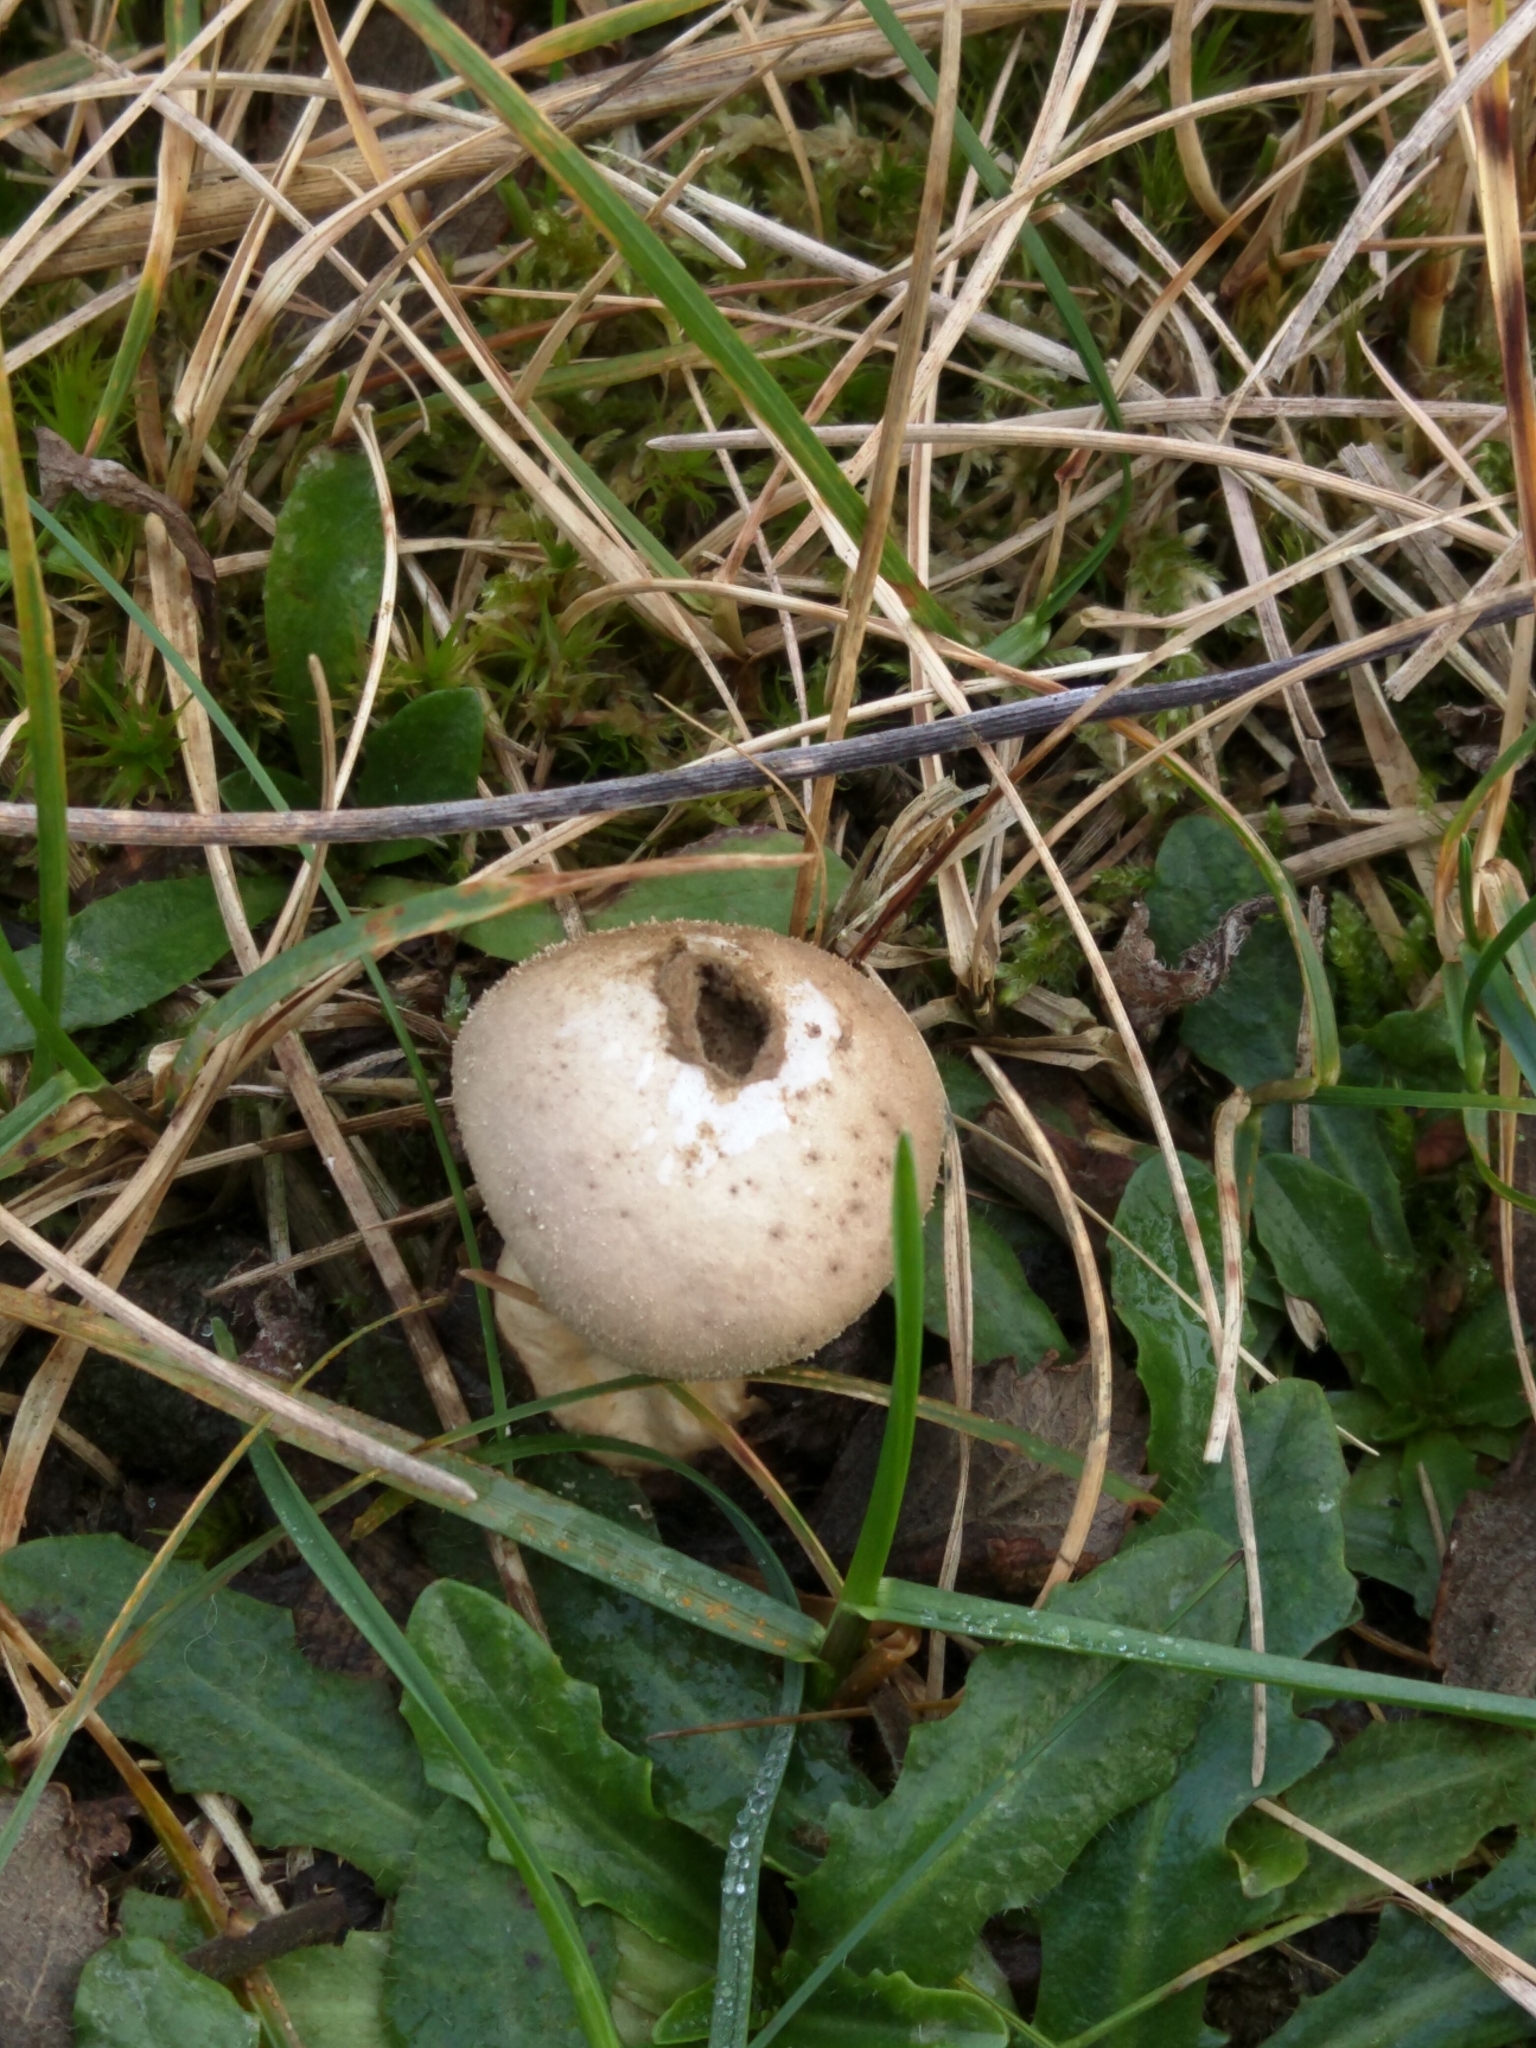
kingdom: Fungi
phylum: Basidiomycota
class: Agaricomycetes
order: Agaricales
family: Lycoperdaceae
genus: Lycoperdon
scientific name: Lycoperdon perlatum
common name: Common puffball
